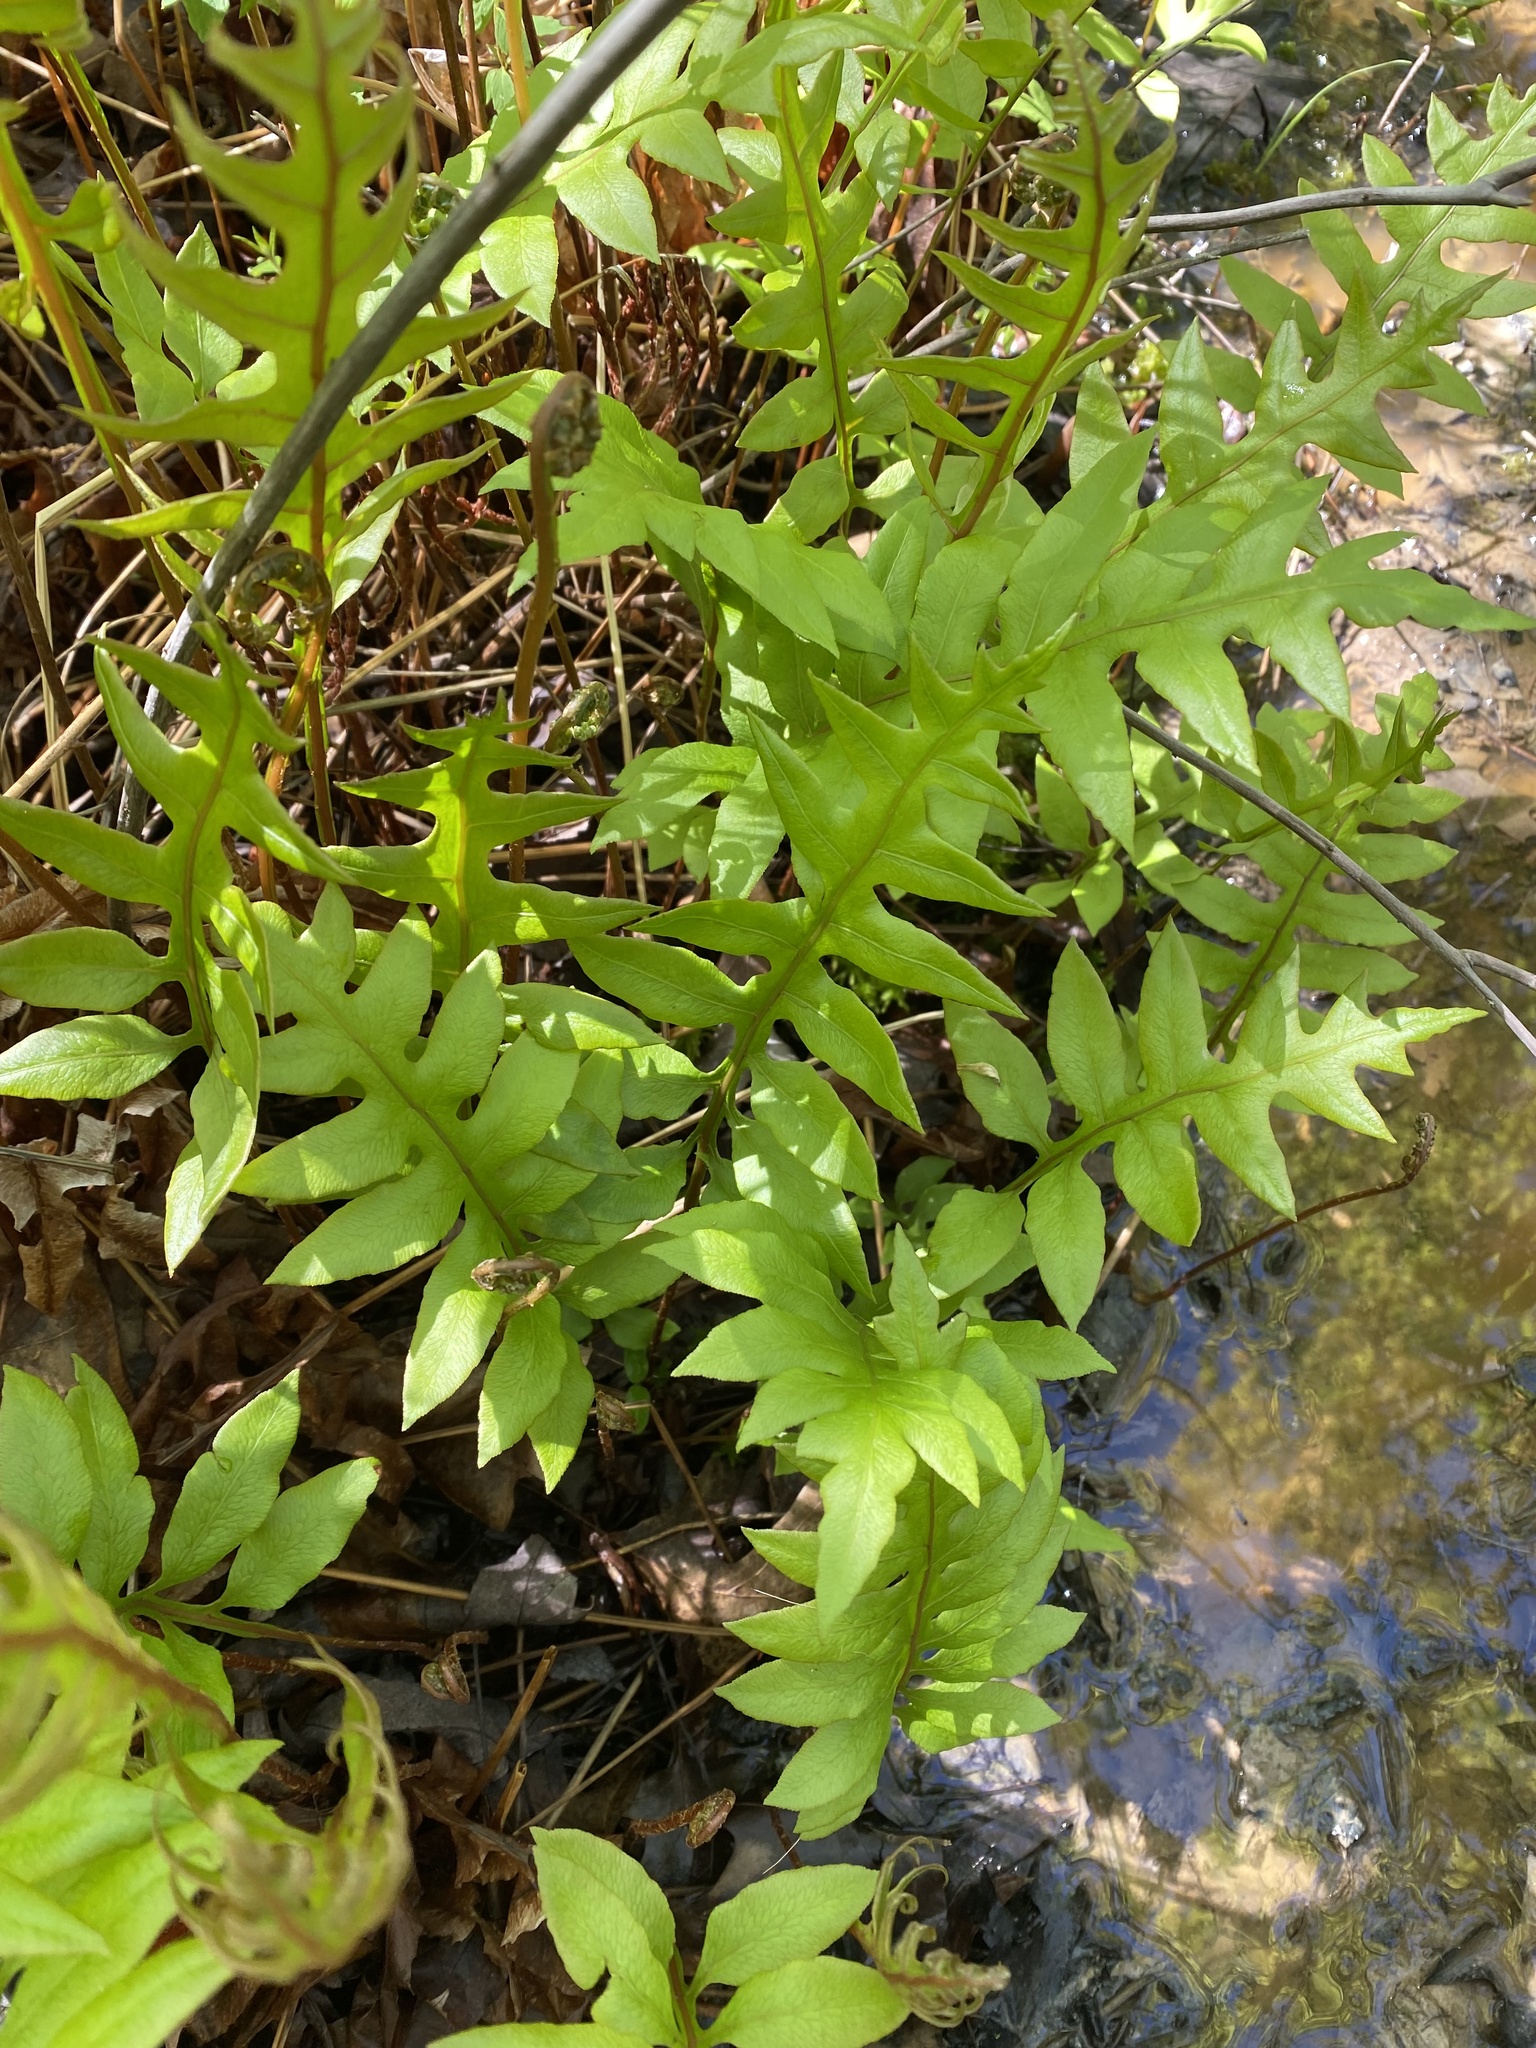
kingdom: Plantae
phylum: Tracheophyta
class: Polypodiopsida
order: Polypodiales
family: Blechnaceae
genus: Lorinseria
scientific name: Lorinseria areolata
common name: Dwarf chain fern
